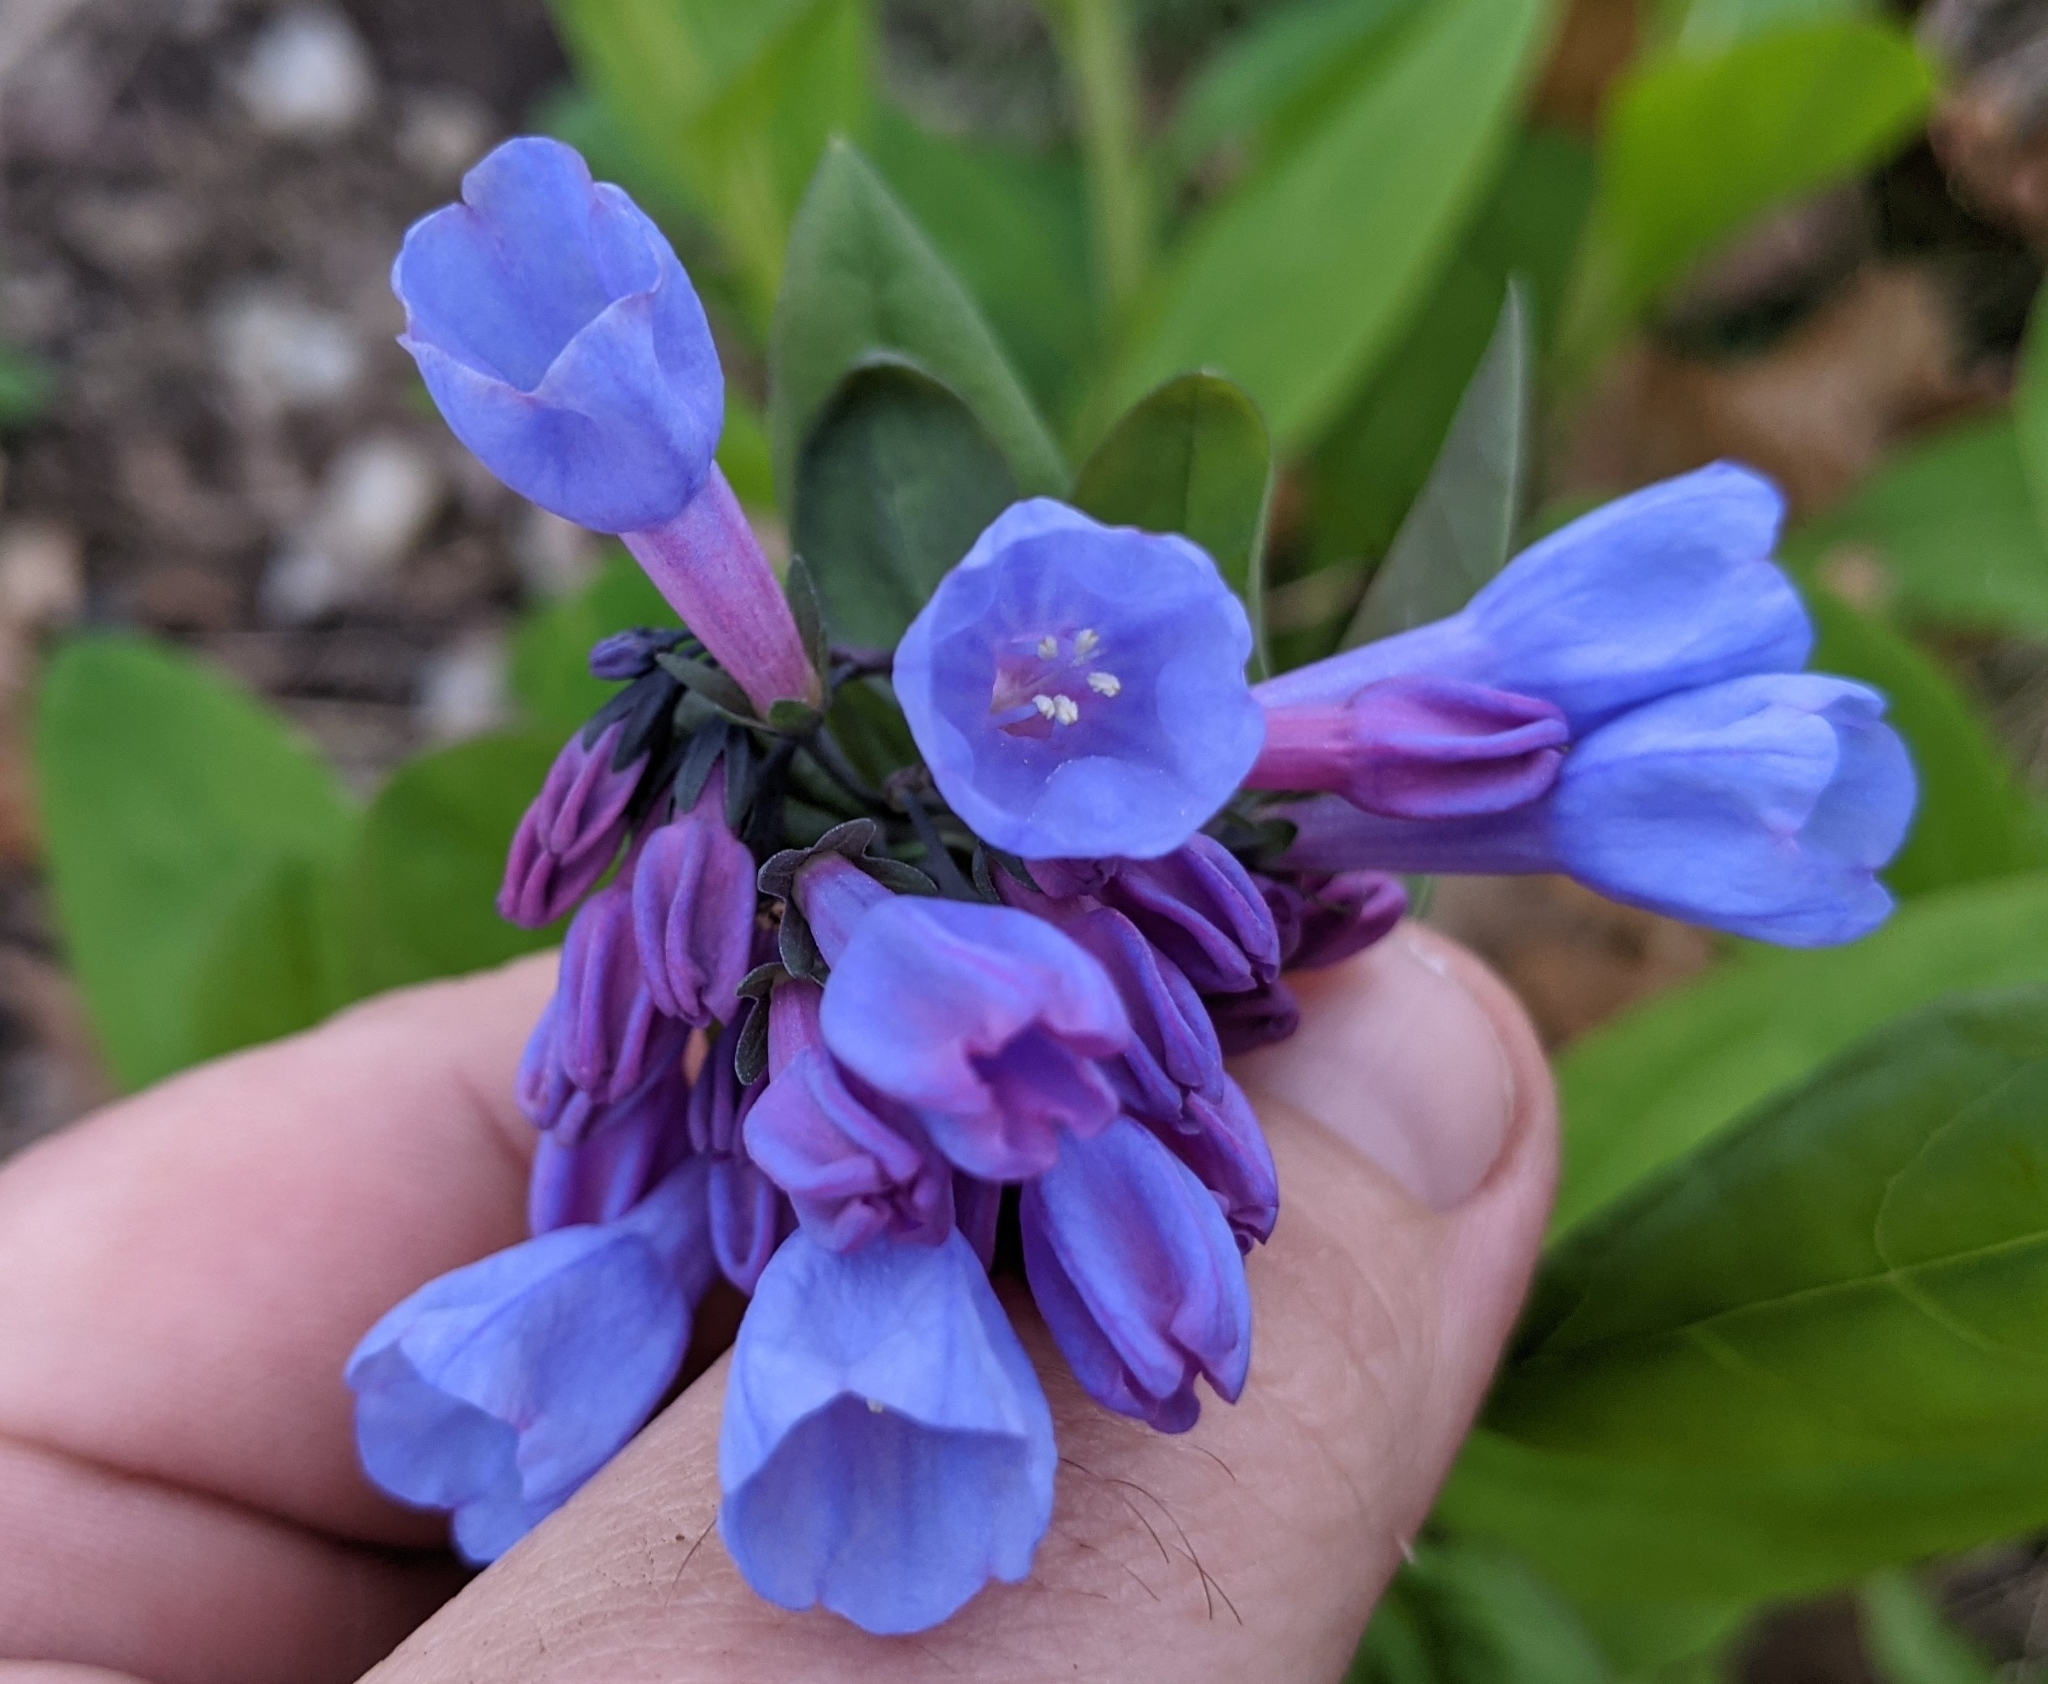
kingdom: Plantae
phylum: Tracheophyta
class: Magnoliopsida
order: Boraginales
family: Boraginaceae
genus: Mertensia
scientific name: Mertensia virginica
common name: Virginia bluebells
